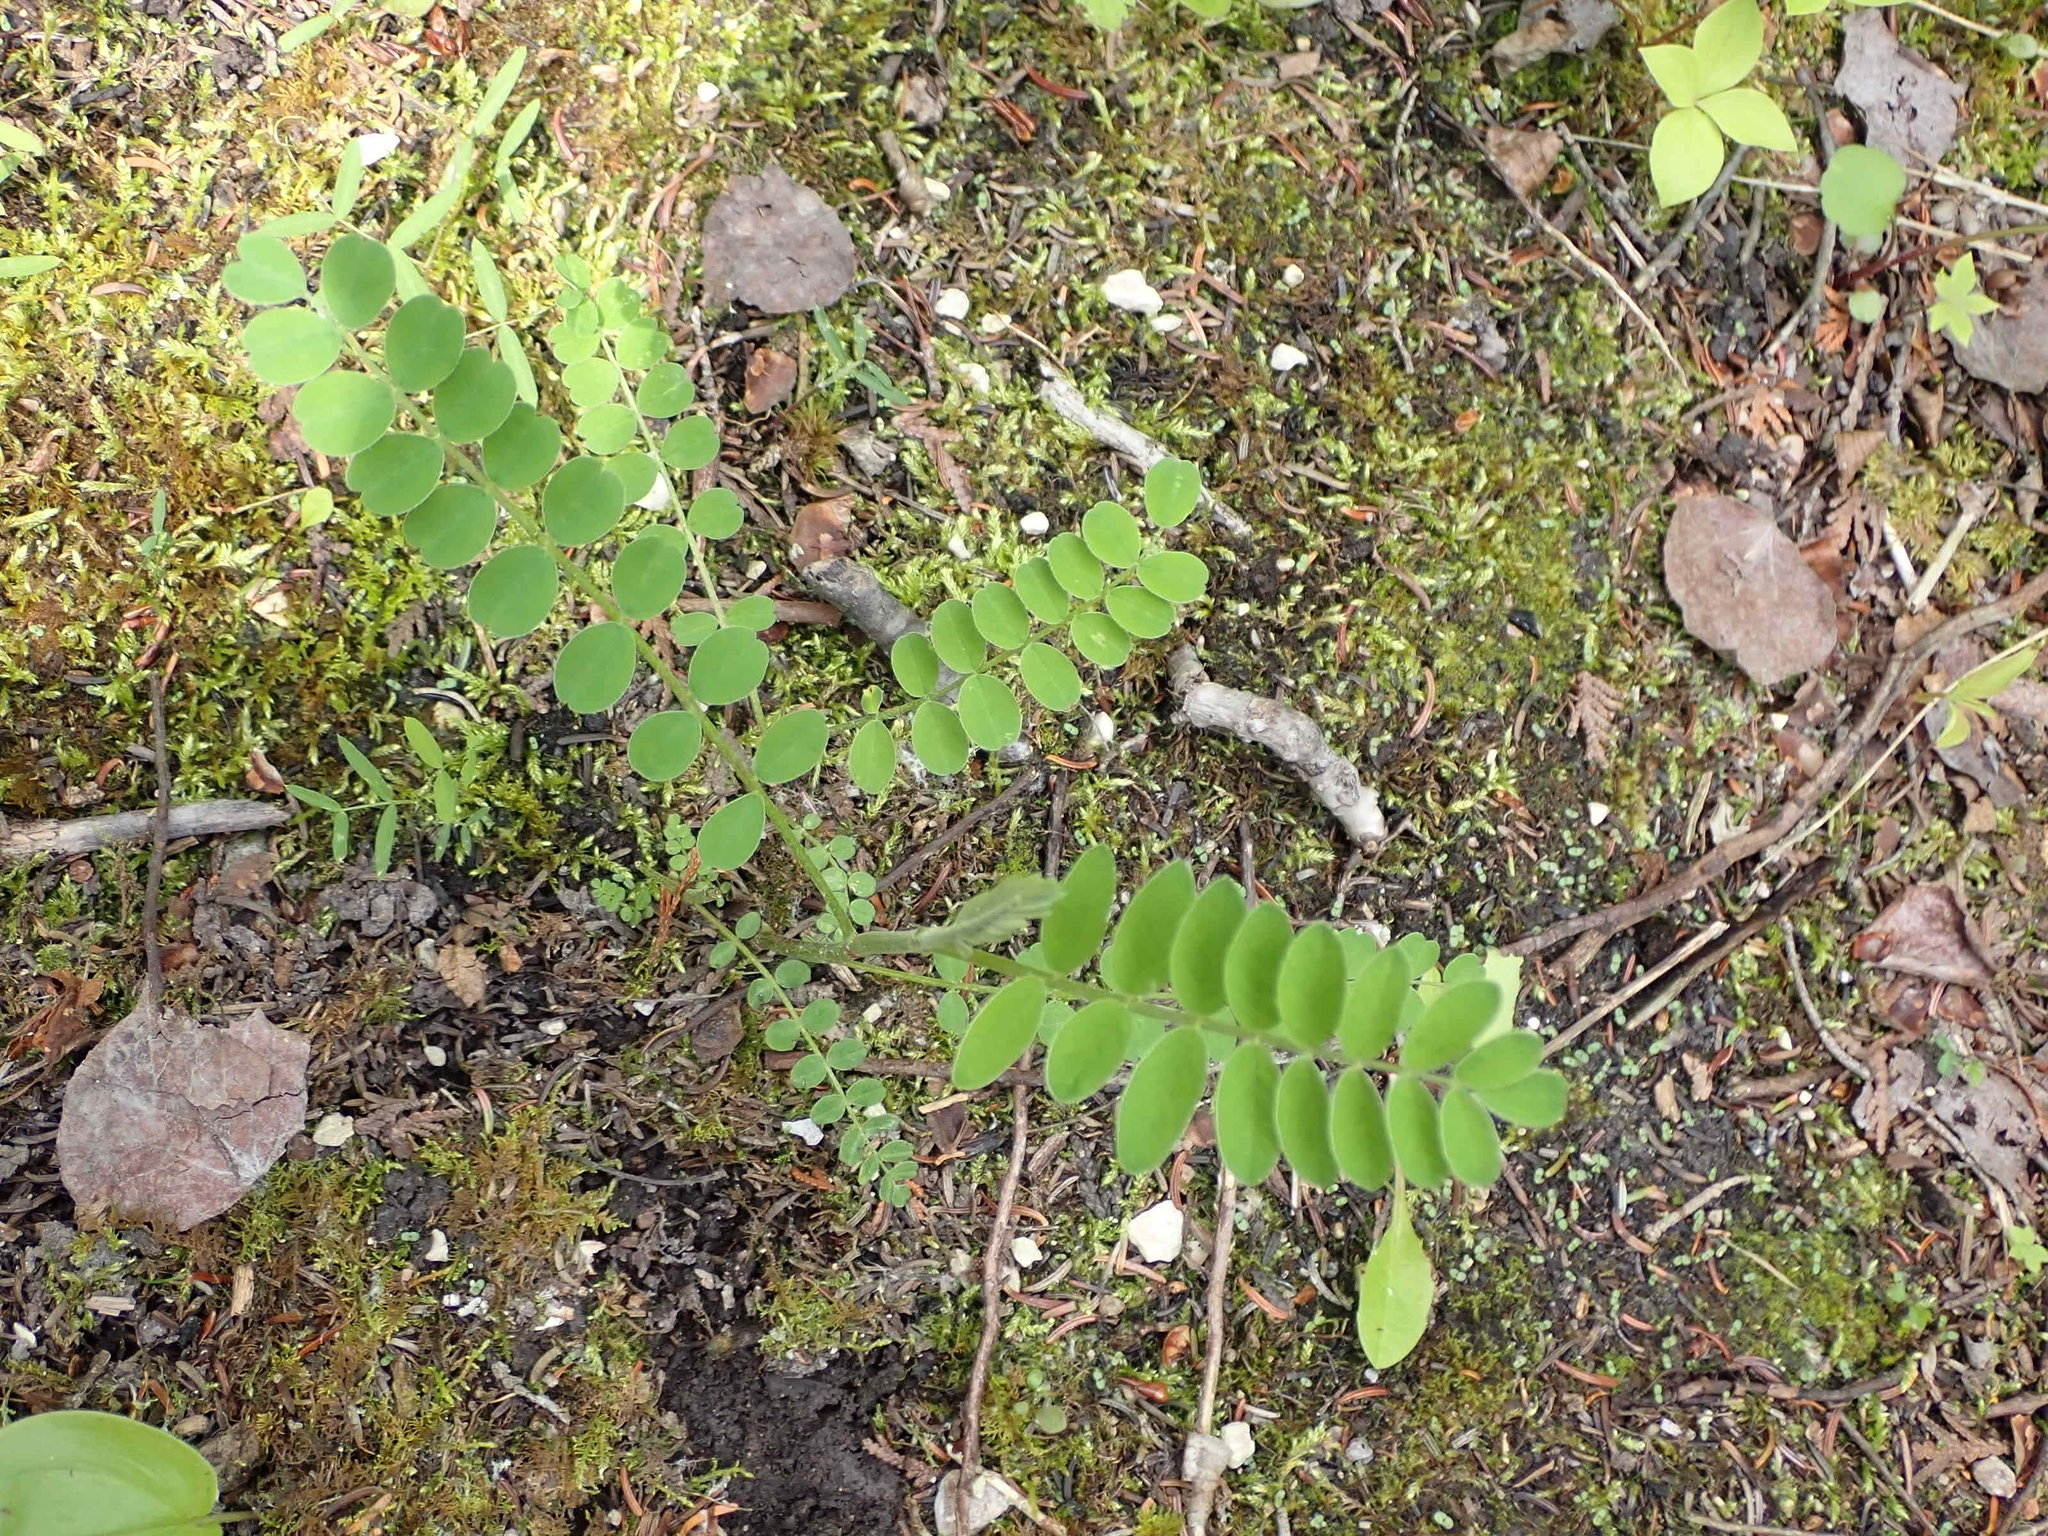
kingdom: Plantae
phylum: Tracheophyta
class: Magnoliopsida
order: Fabales
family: Fabaceae
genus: Lathyrus
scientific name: Lathyrus venosus
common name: Forest-pea
